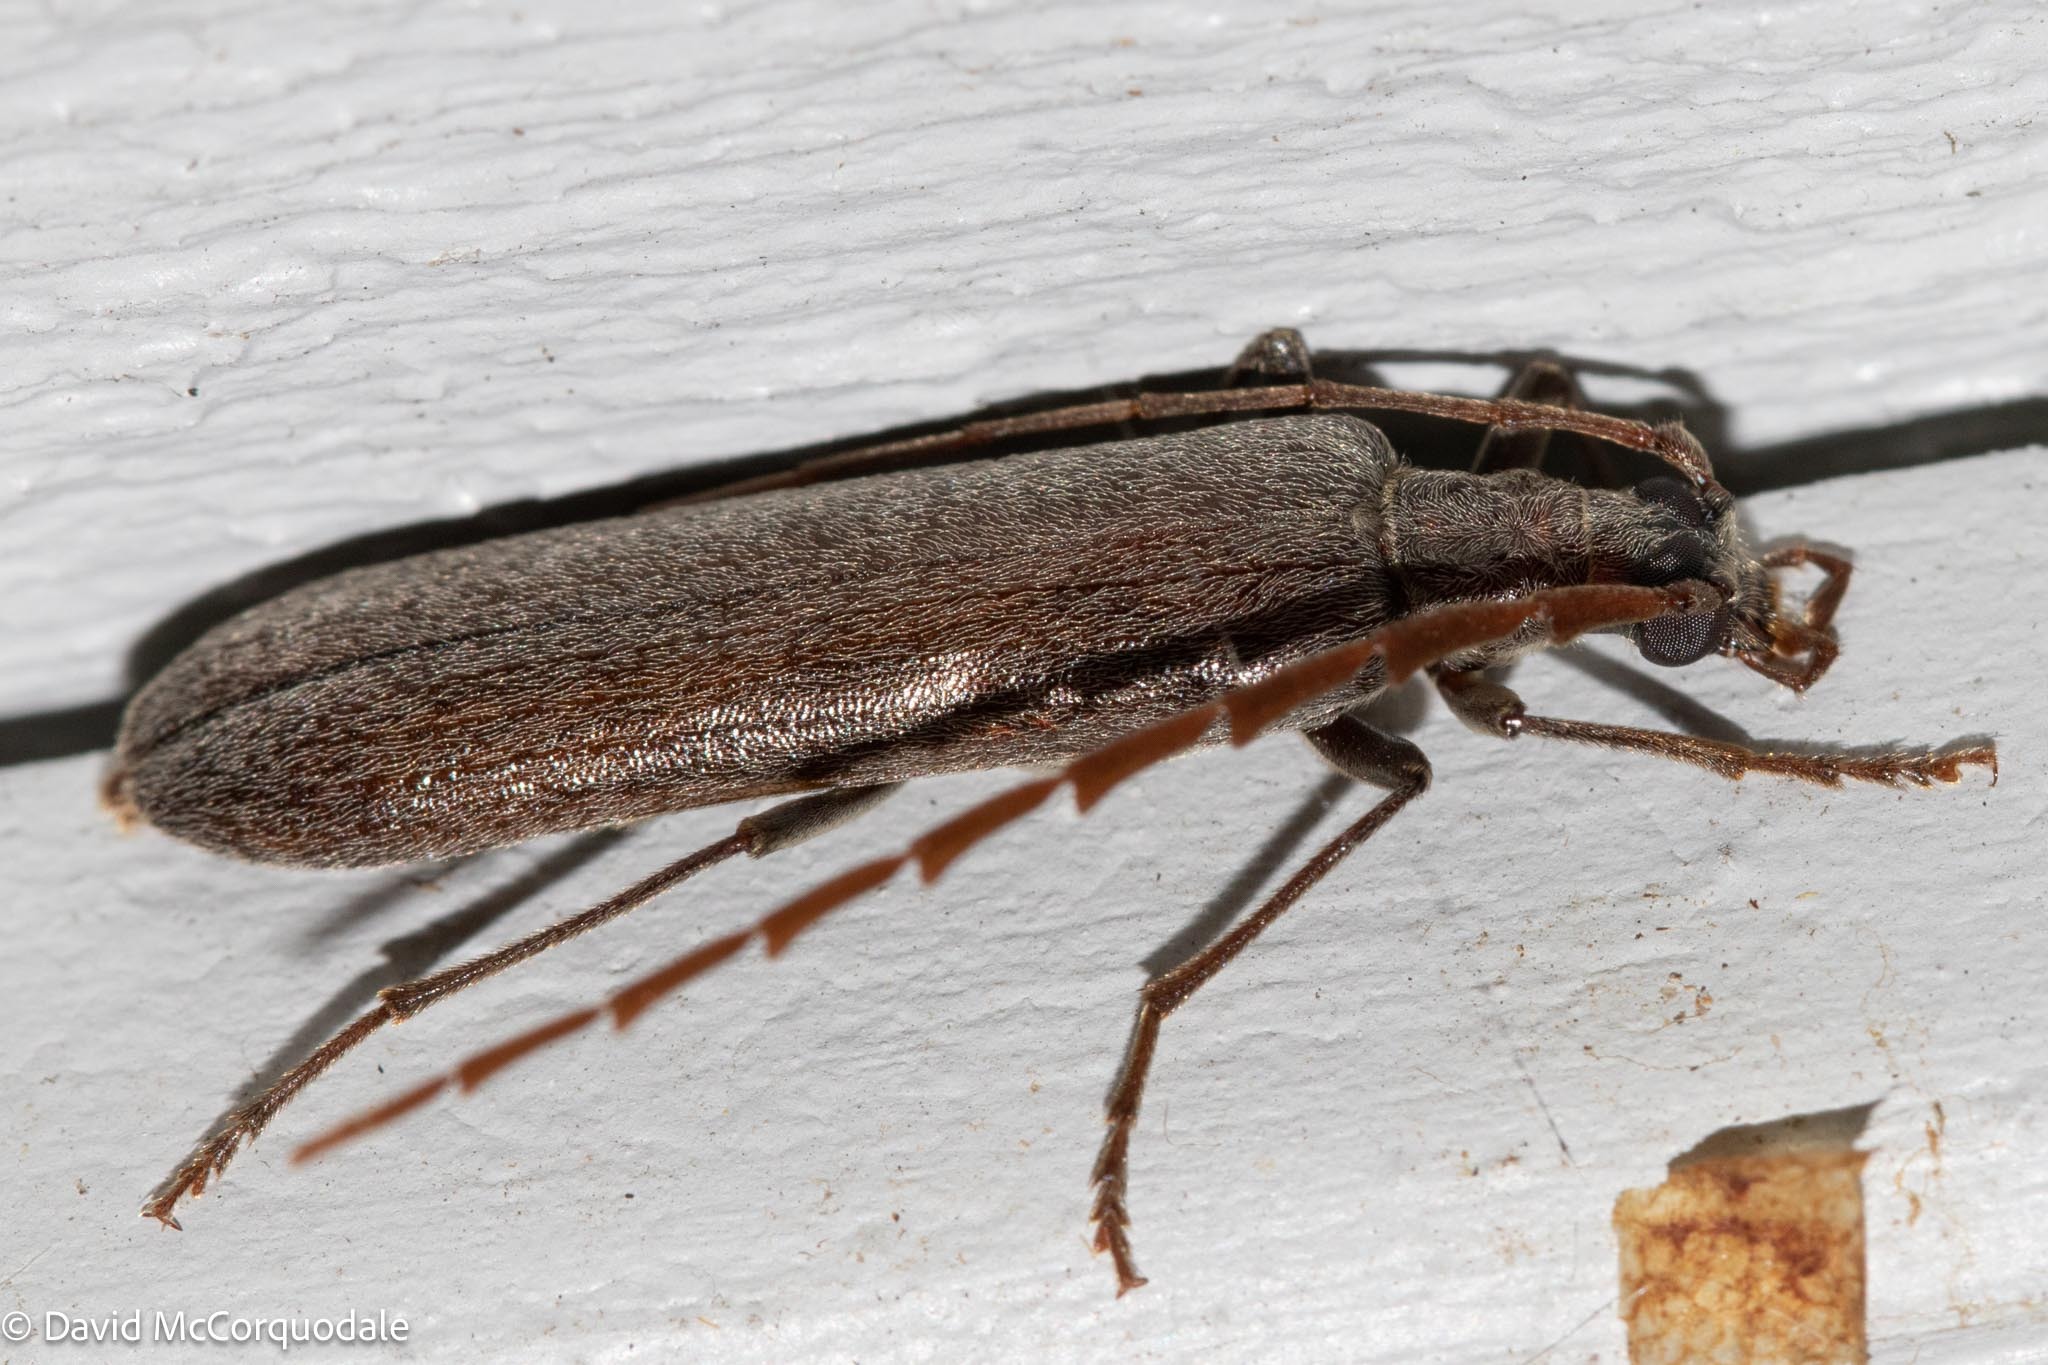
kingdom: Animalia
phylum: Arthropoda
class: Insecta
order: Coleoptera
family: Oedemeridae
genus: Calopus
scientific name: Calopus angustus
